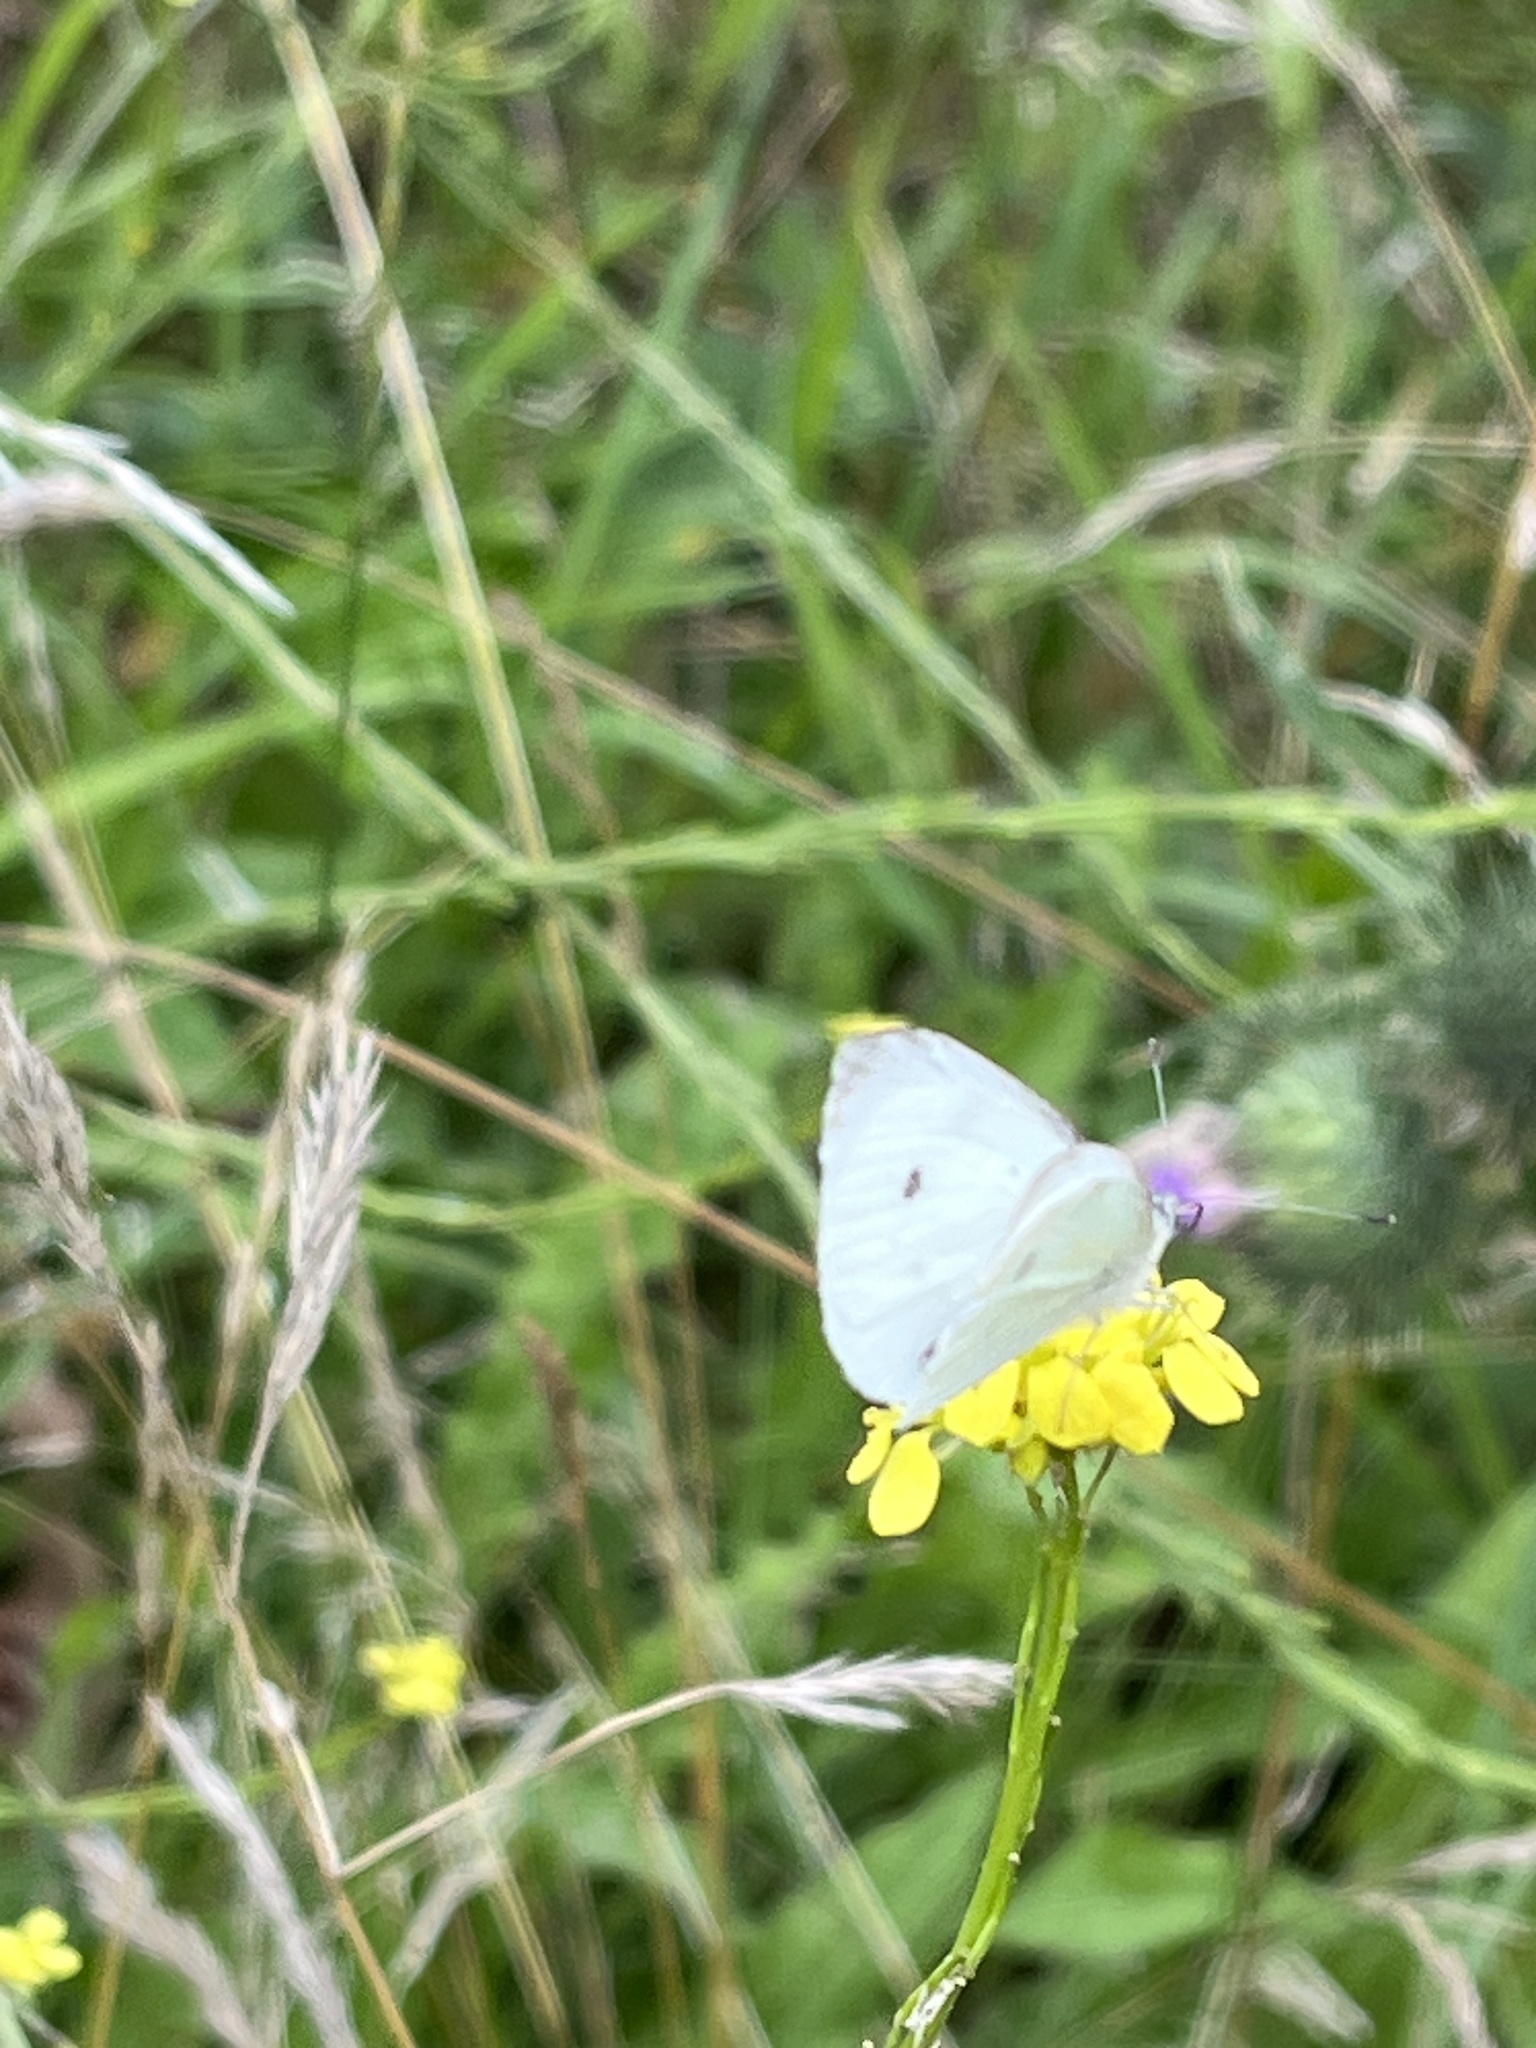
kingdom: Animalia
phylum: Arthropoda
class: Insecta
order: Lepidoptera
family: Pieridae
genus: Pieris
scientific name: Pieris rapae
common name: Small white
